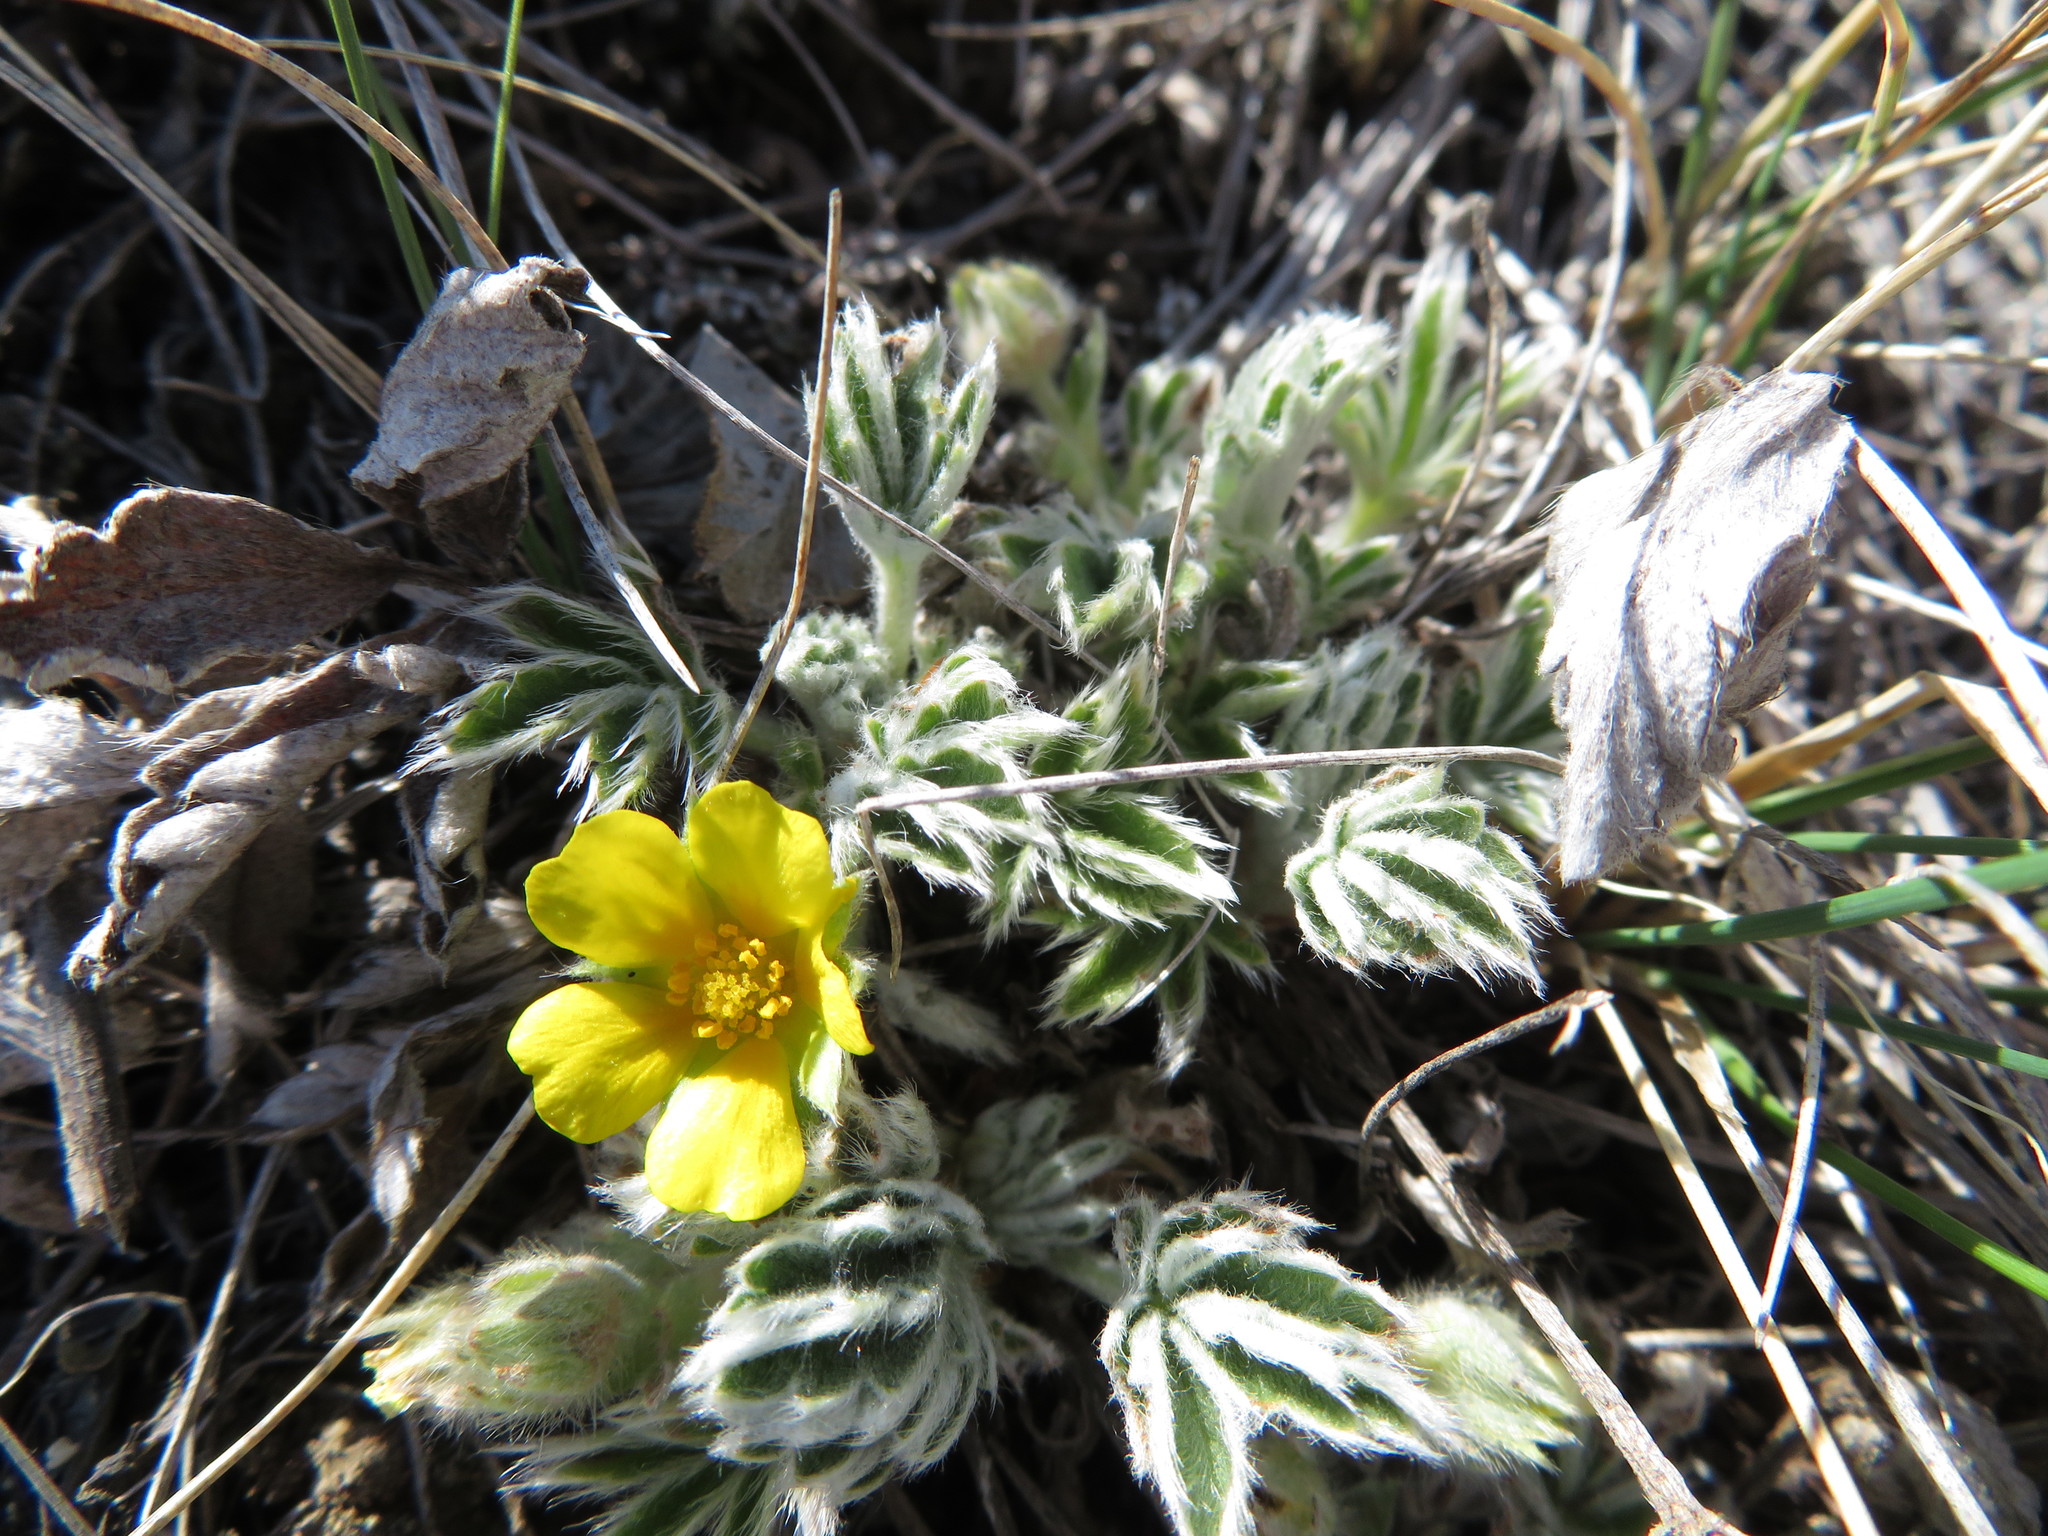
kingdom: Plantae
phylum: Tracheophyta
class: Magnoliopsida
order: Rosales
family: Rosaceae
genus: Potentilla
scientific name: Potentilla concinna
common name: Early cinquefoil
